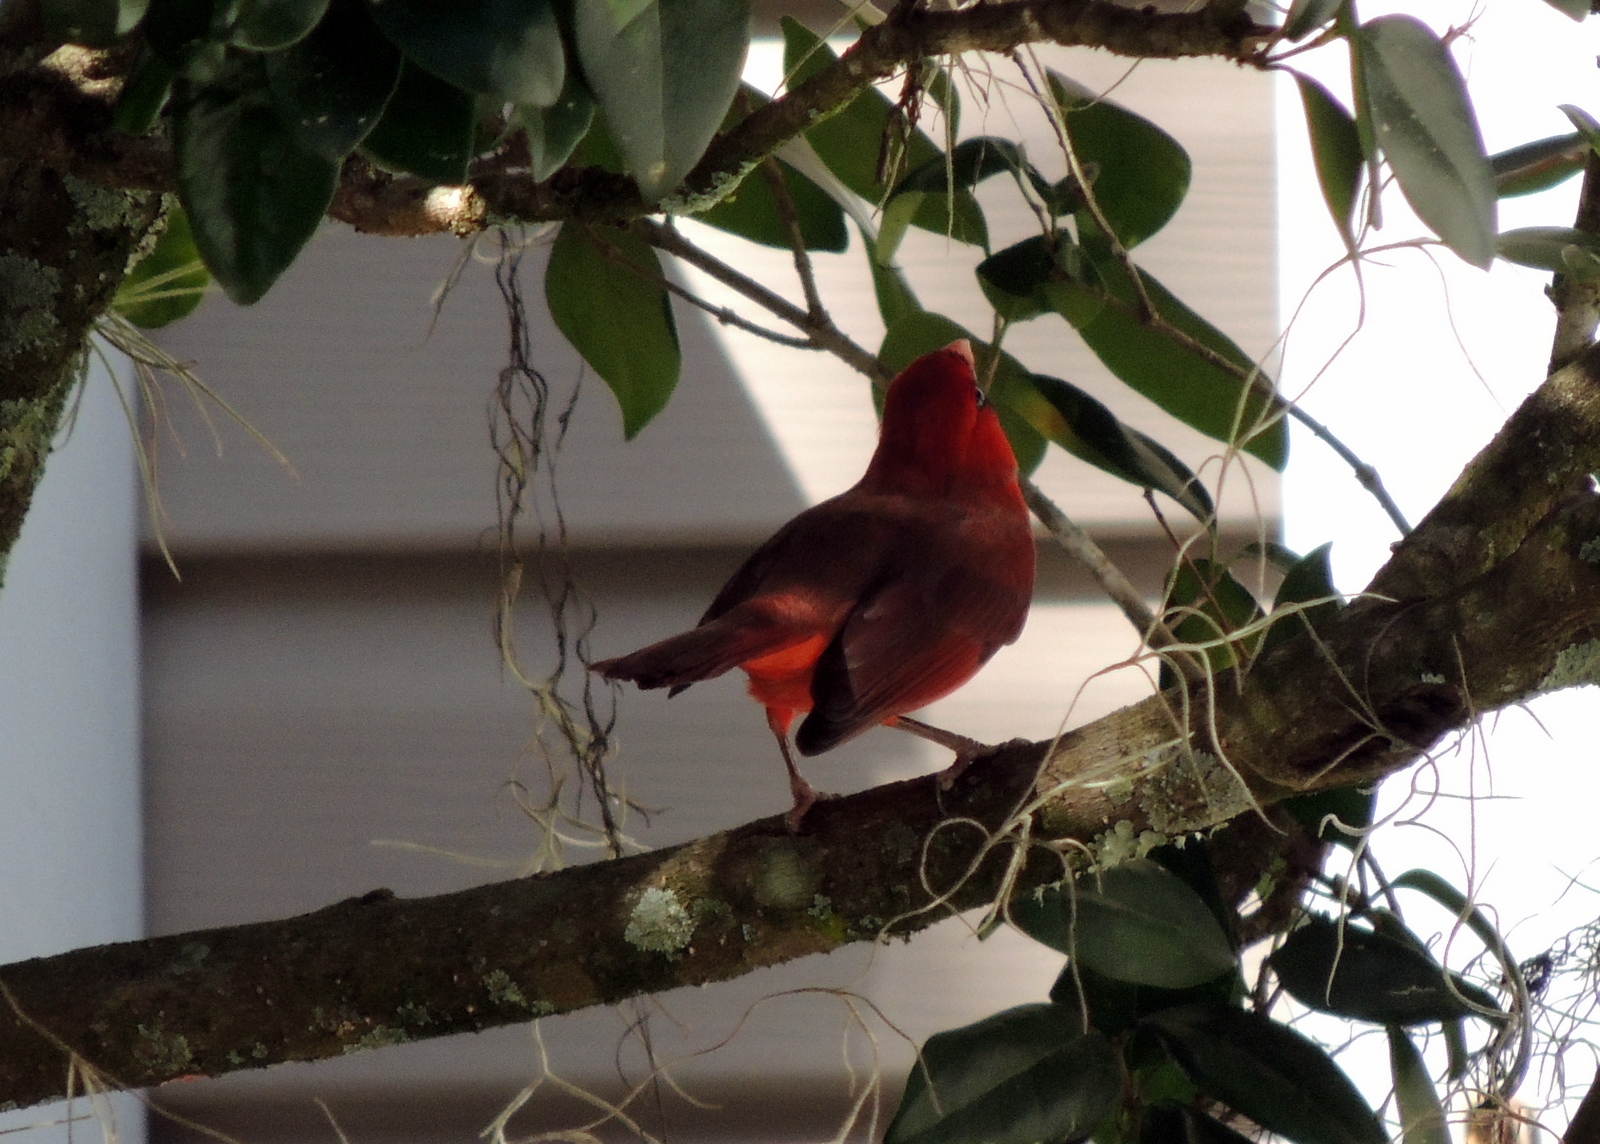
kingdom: Animalia
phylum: Chordata
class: Aves
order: Passeriformes
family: Cardinalidae
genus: Cardinalis
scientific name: Cardinalis cardinalis
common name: Northern cardinal
